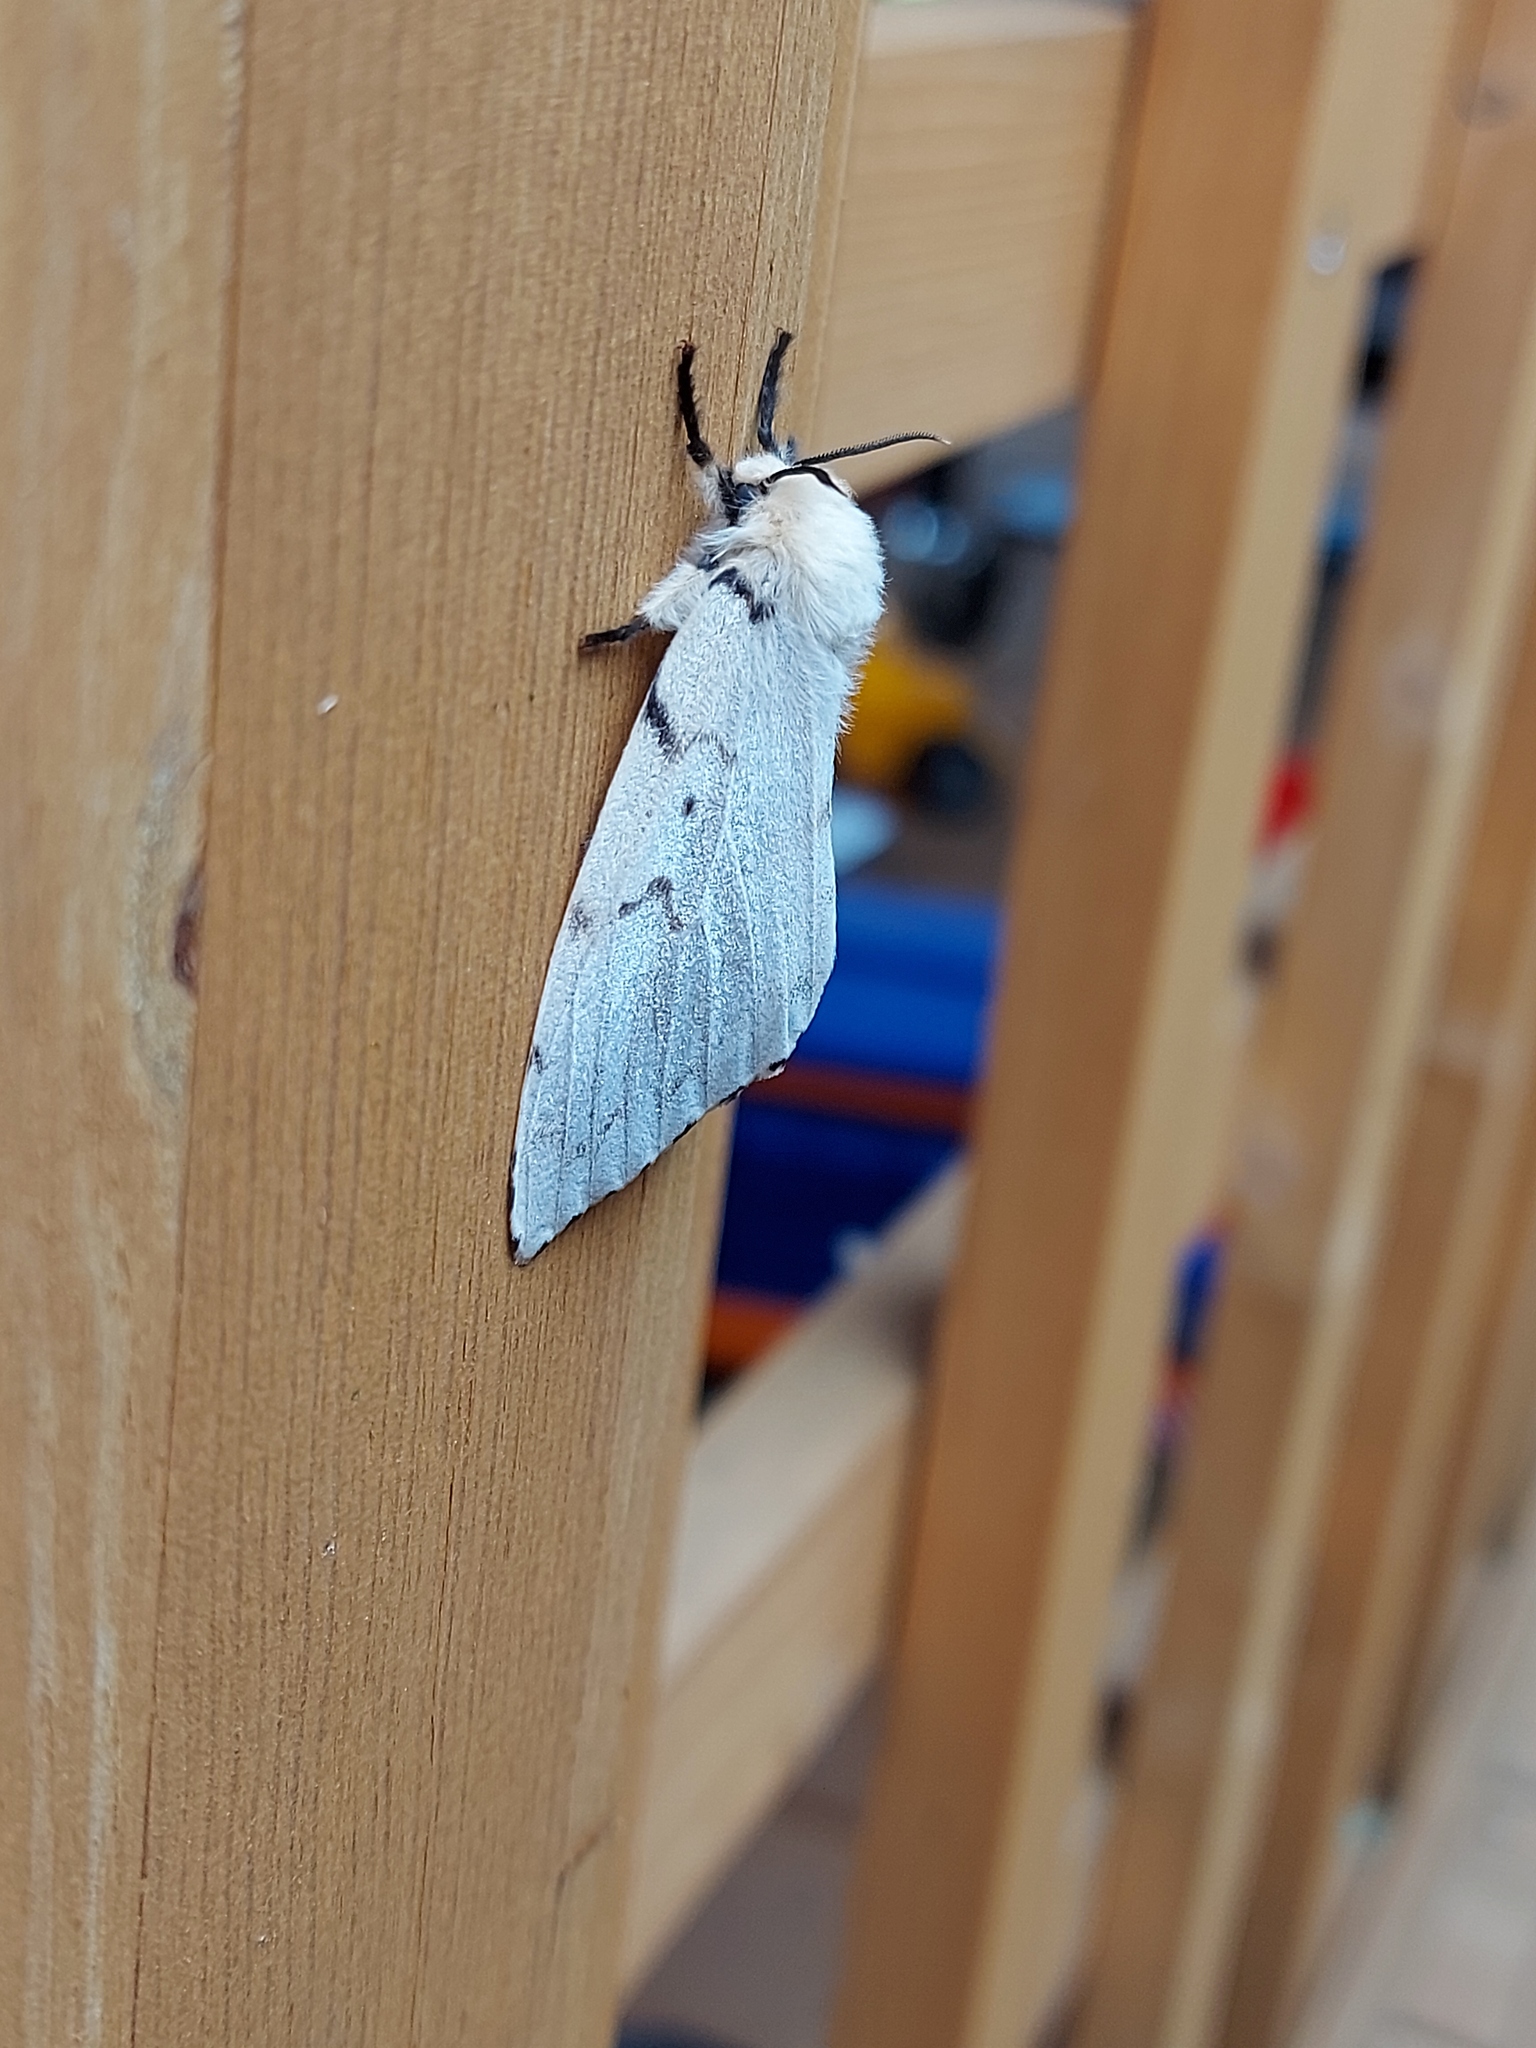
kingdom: Animalia
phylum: Arthropoda
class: Insecta
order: Lepidoptera
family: Erebidae
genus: Lymantria
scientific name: Lymantria dispar
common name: Gypsy moth
